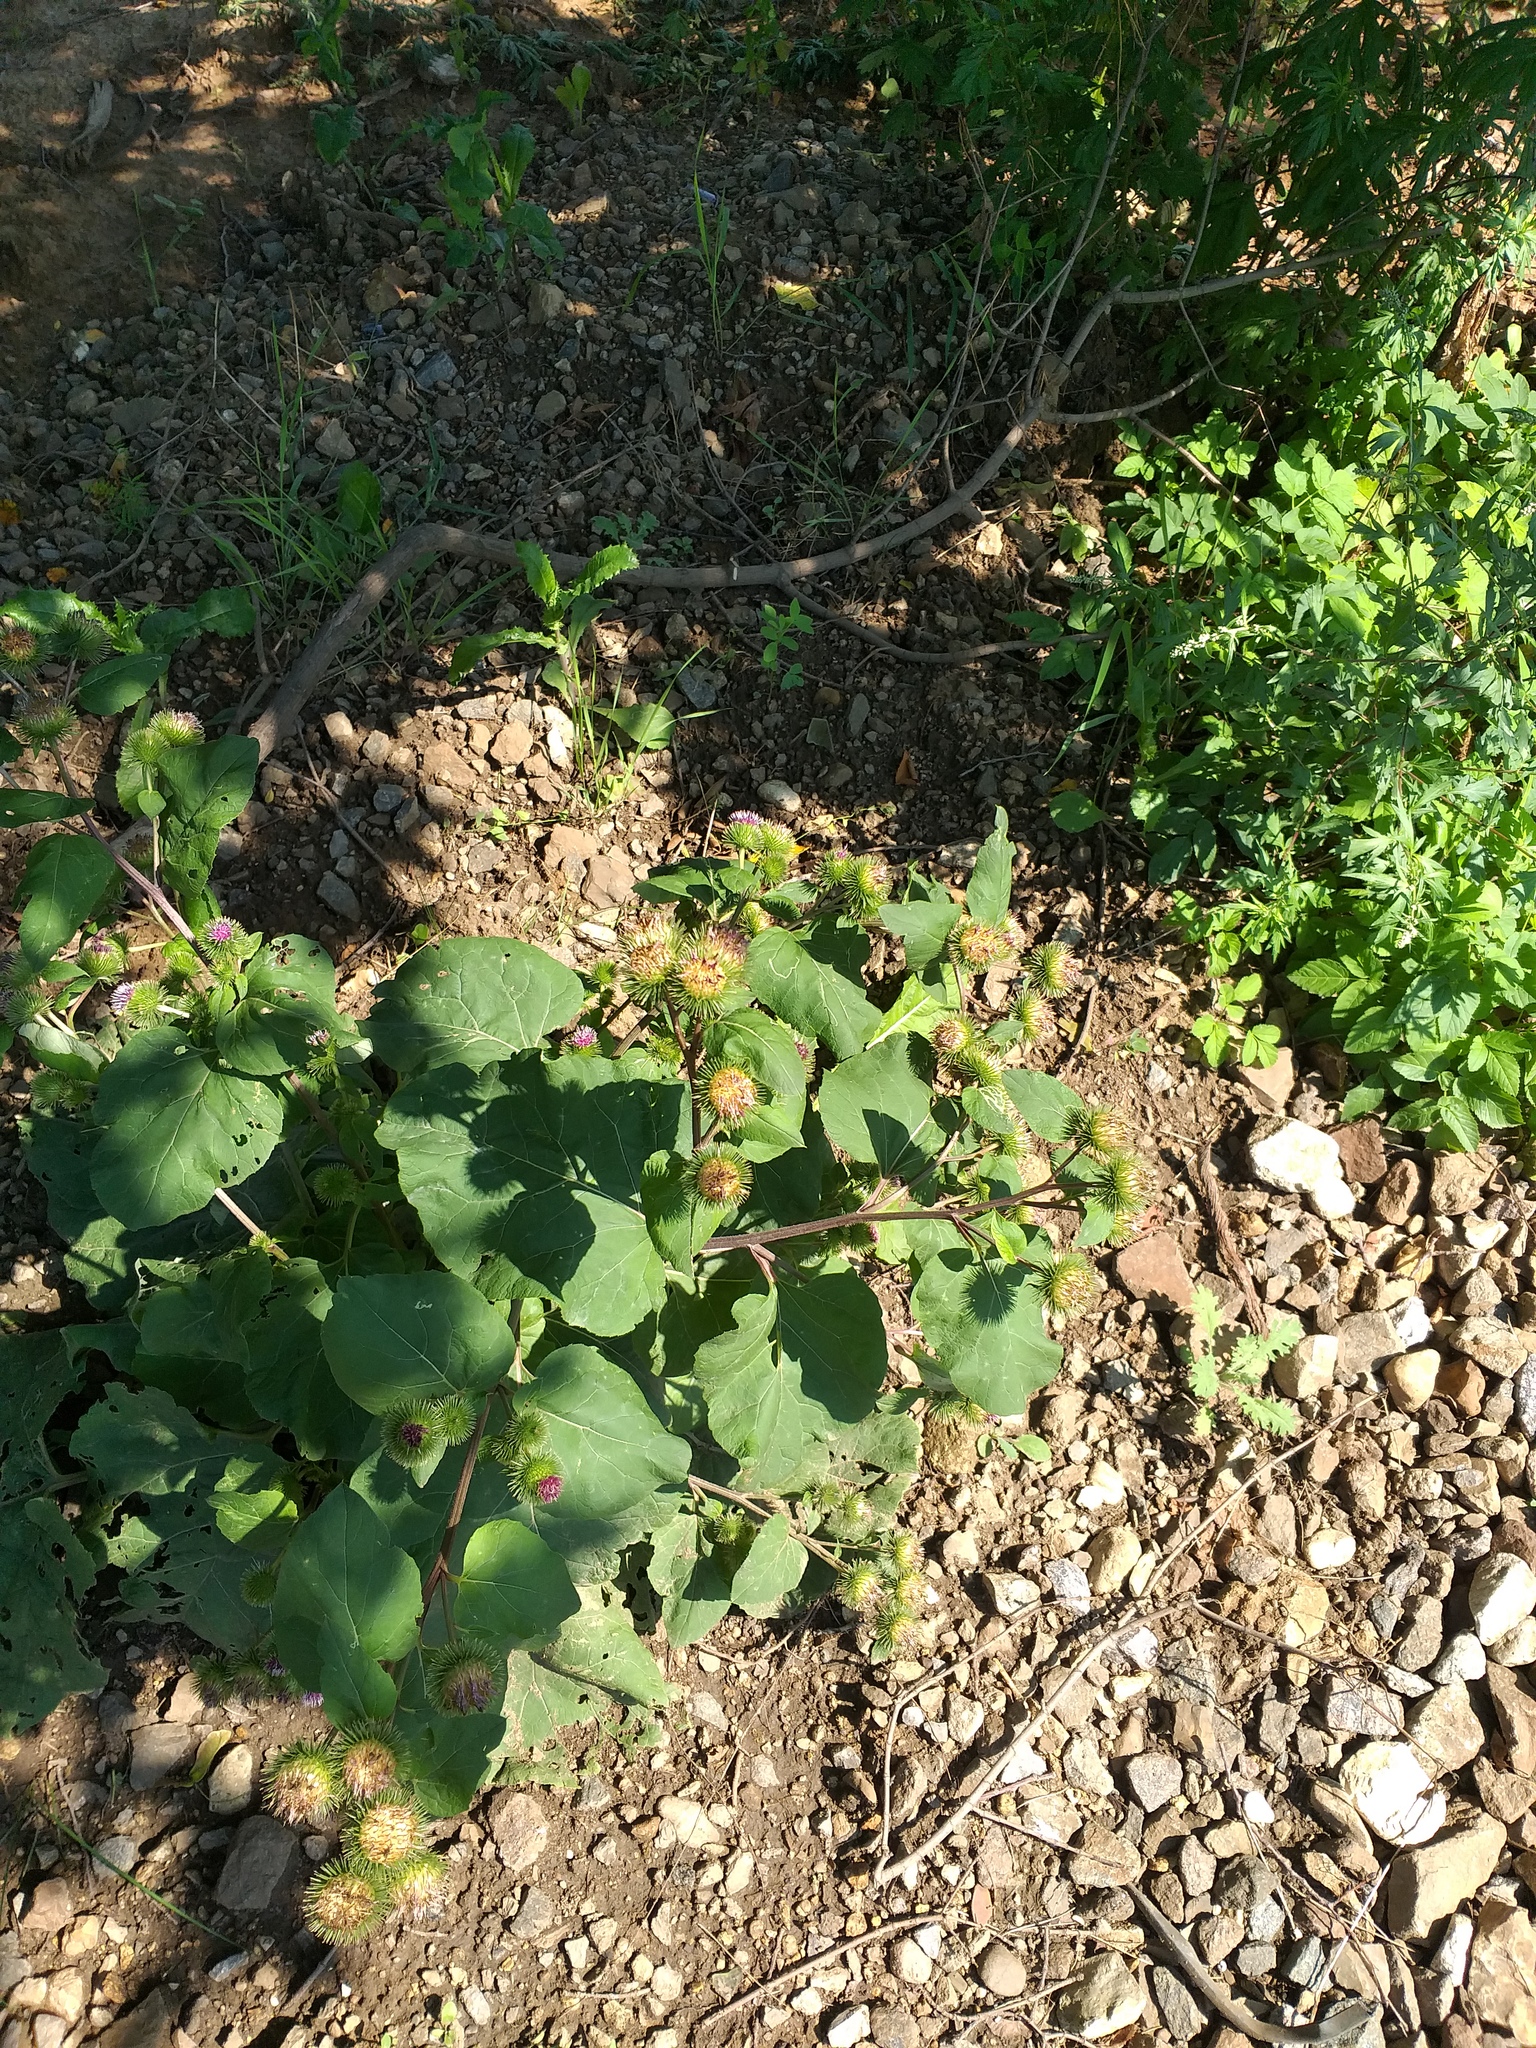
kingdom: Plantae
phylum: Tracheophyta
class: Magnoliopsida
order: Asterales
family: Asteraceae
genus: Arctium
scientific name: Arctium lappa
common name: Greater burdock
